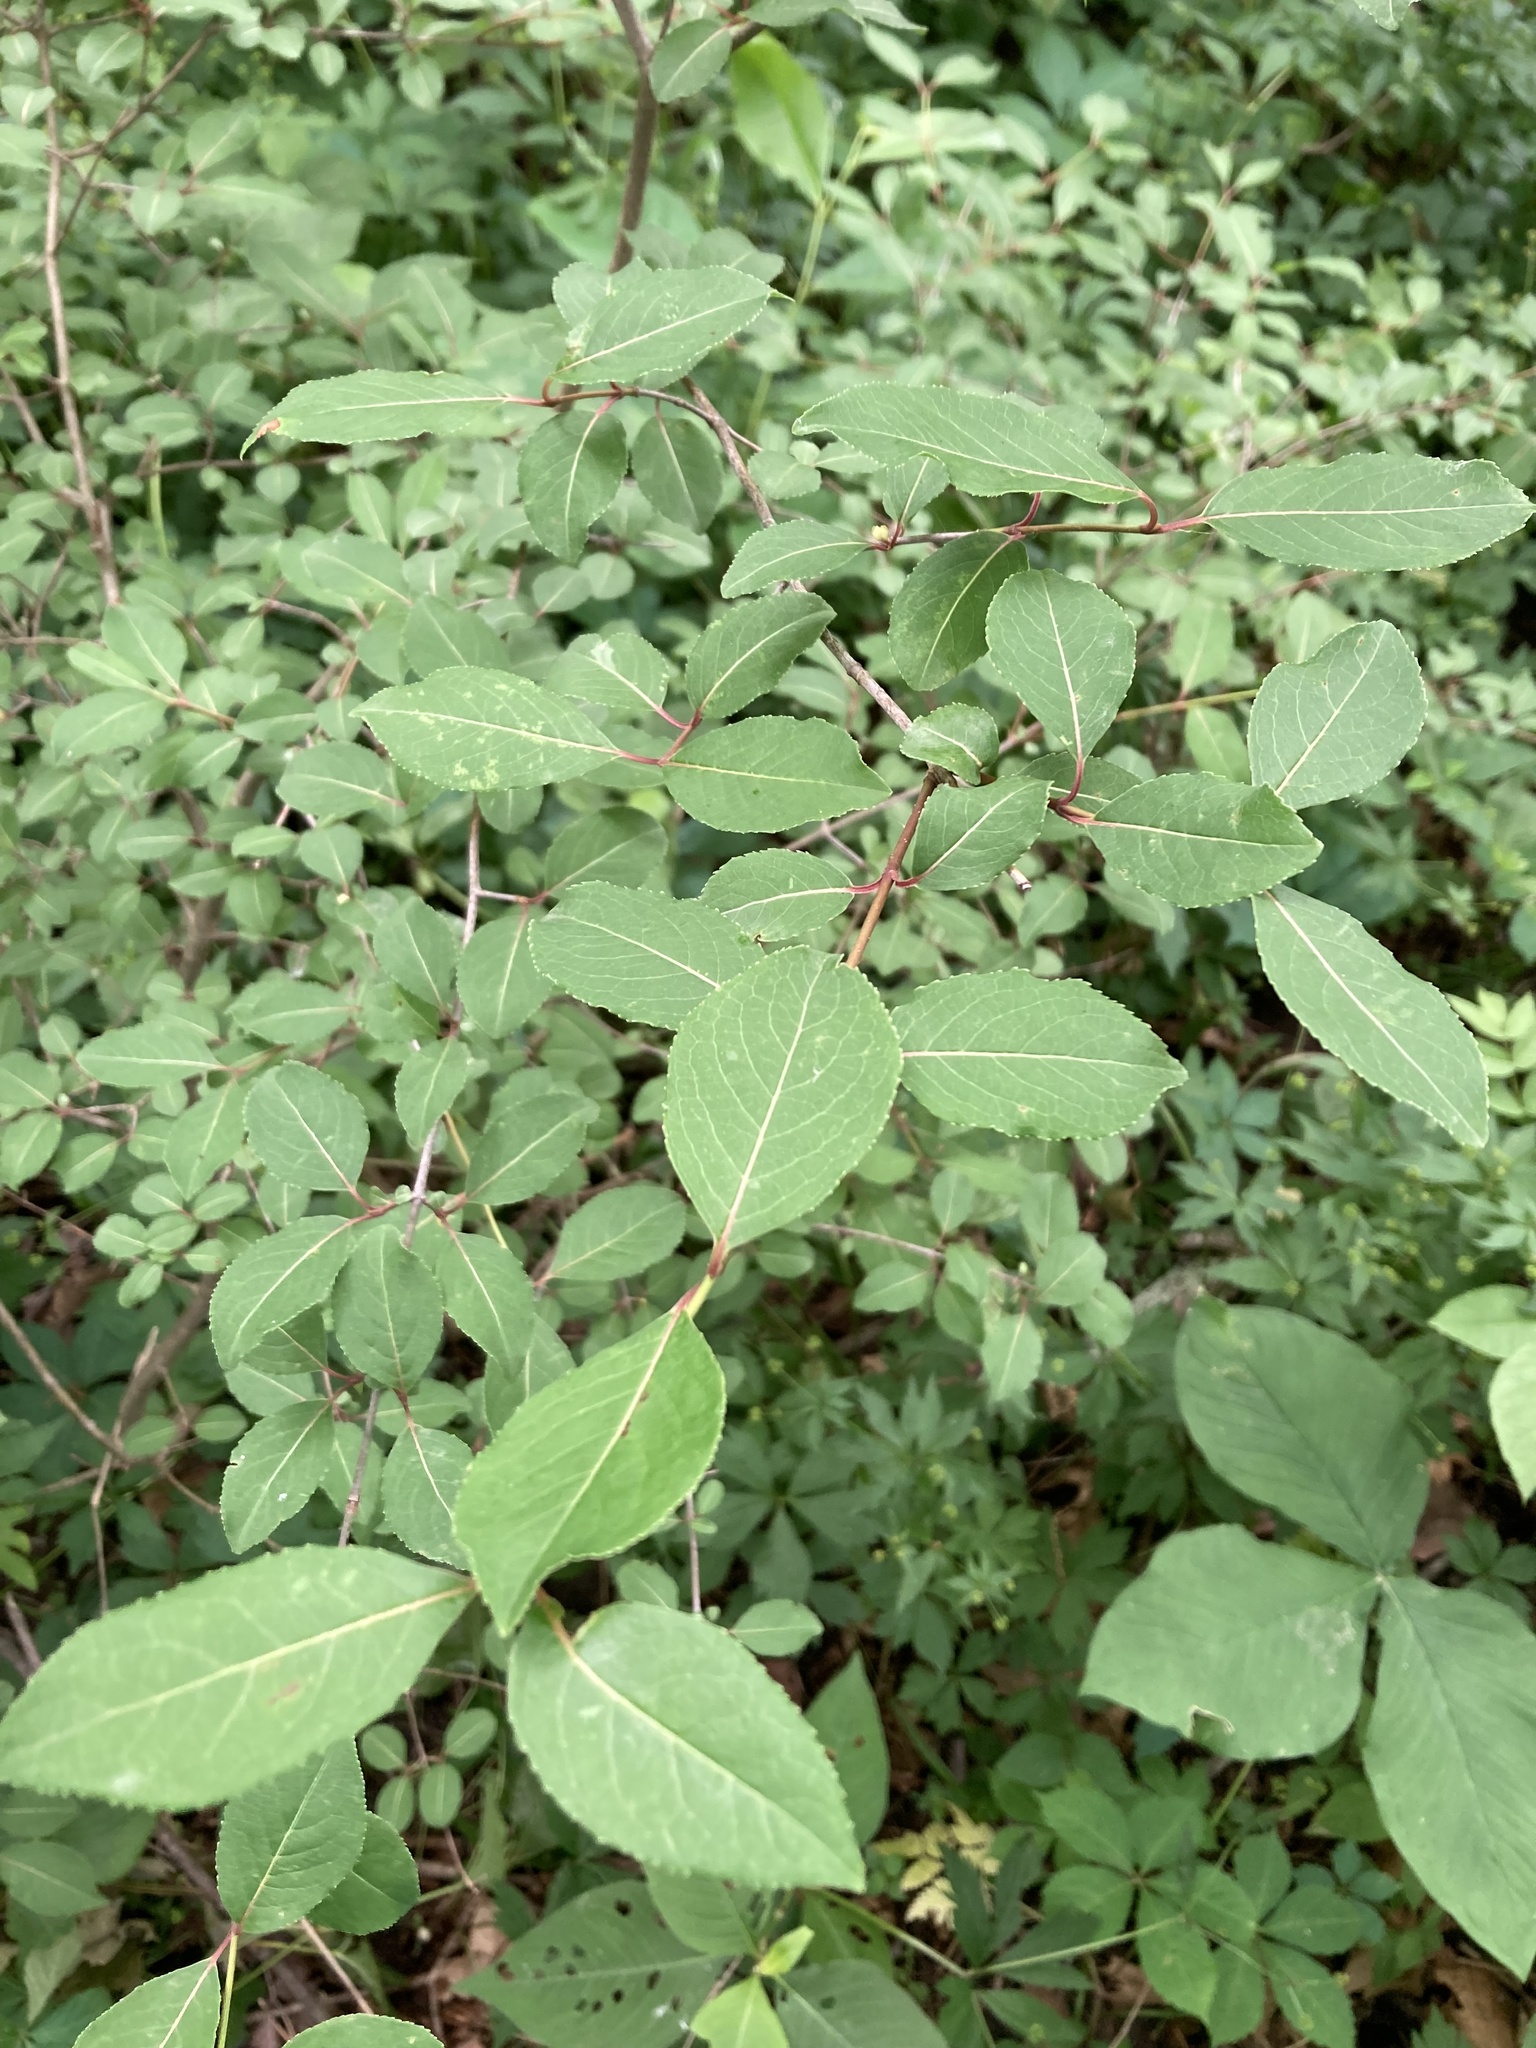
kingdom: Plantae
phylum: Tracheophyta
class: Magnoliopsida
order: Dipsacales
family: Viburnaceae
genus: Viburnum
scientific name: Viburnum prunifolium
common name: Black haw
